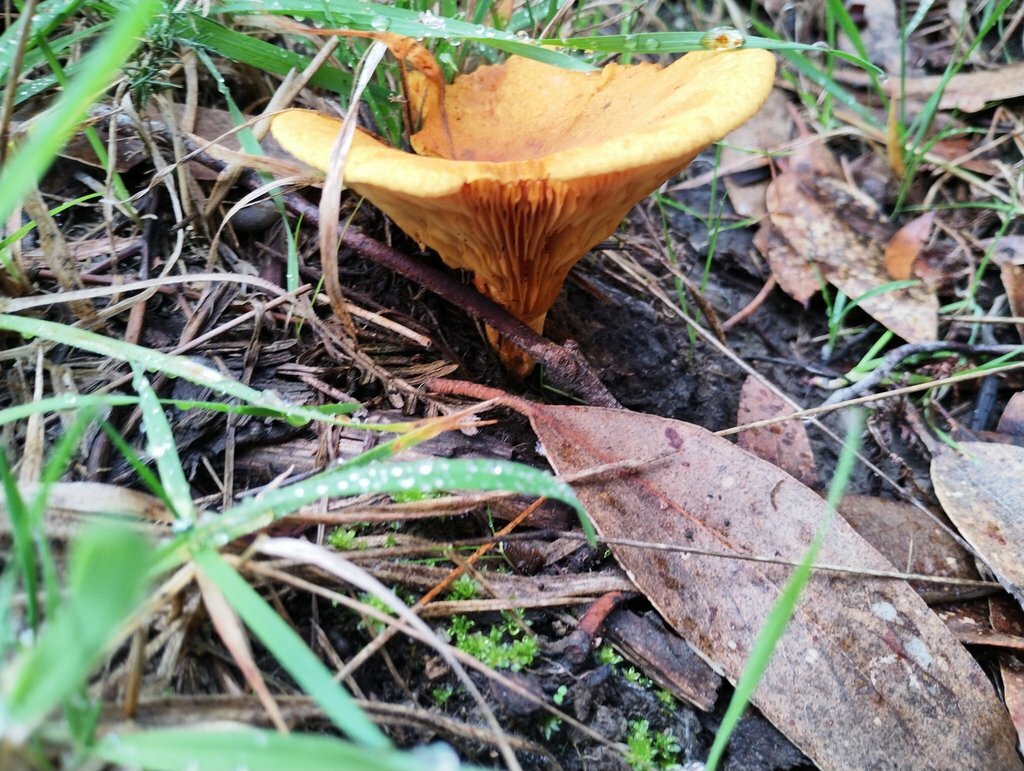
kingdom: Fungi
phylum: Basidiomycota
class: Agaricomycetes
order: Boletales
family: Serpulaceae
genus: Austropaxillus
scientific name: Austropaxillus infundibuliformis
